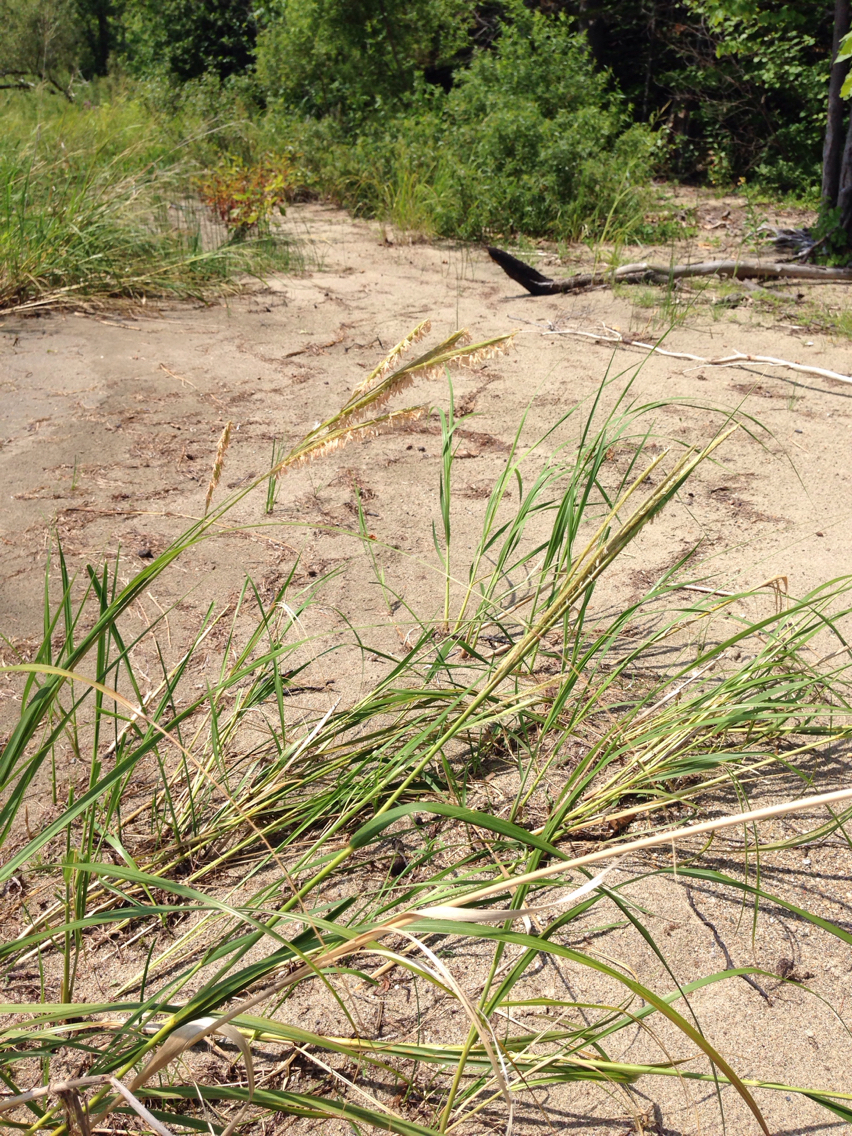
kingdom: Plantae
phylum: Tracheophyta
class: Liliopsida
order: Poales
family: Poaceae
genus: Sporobolus
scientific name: Sporobolus michauxianus
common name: Freshwater cordgrass
